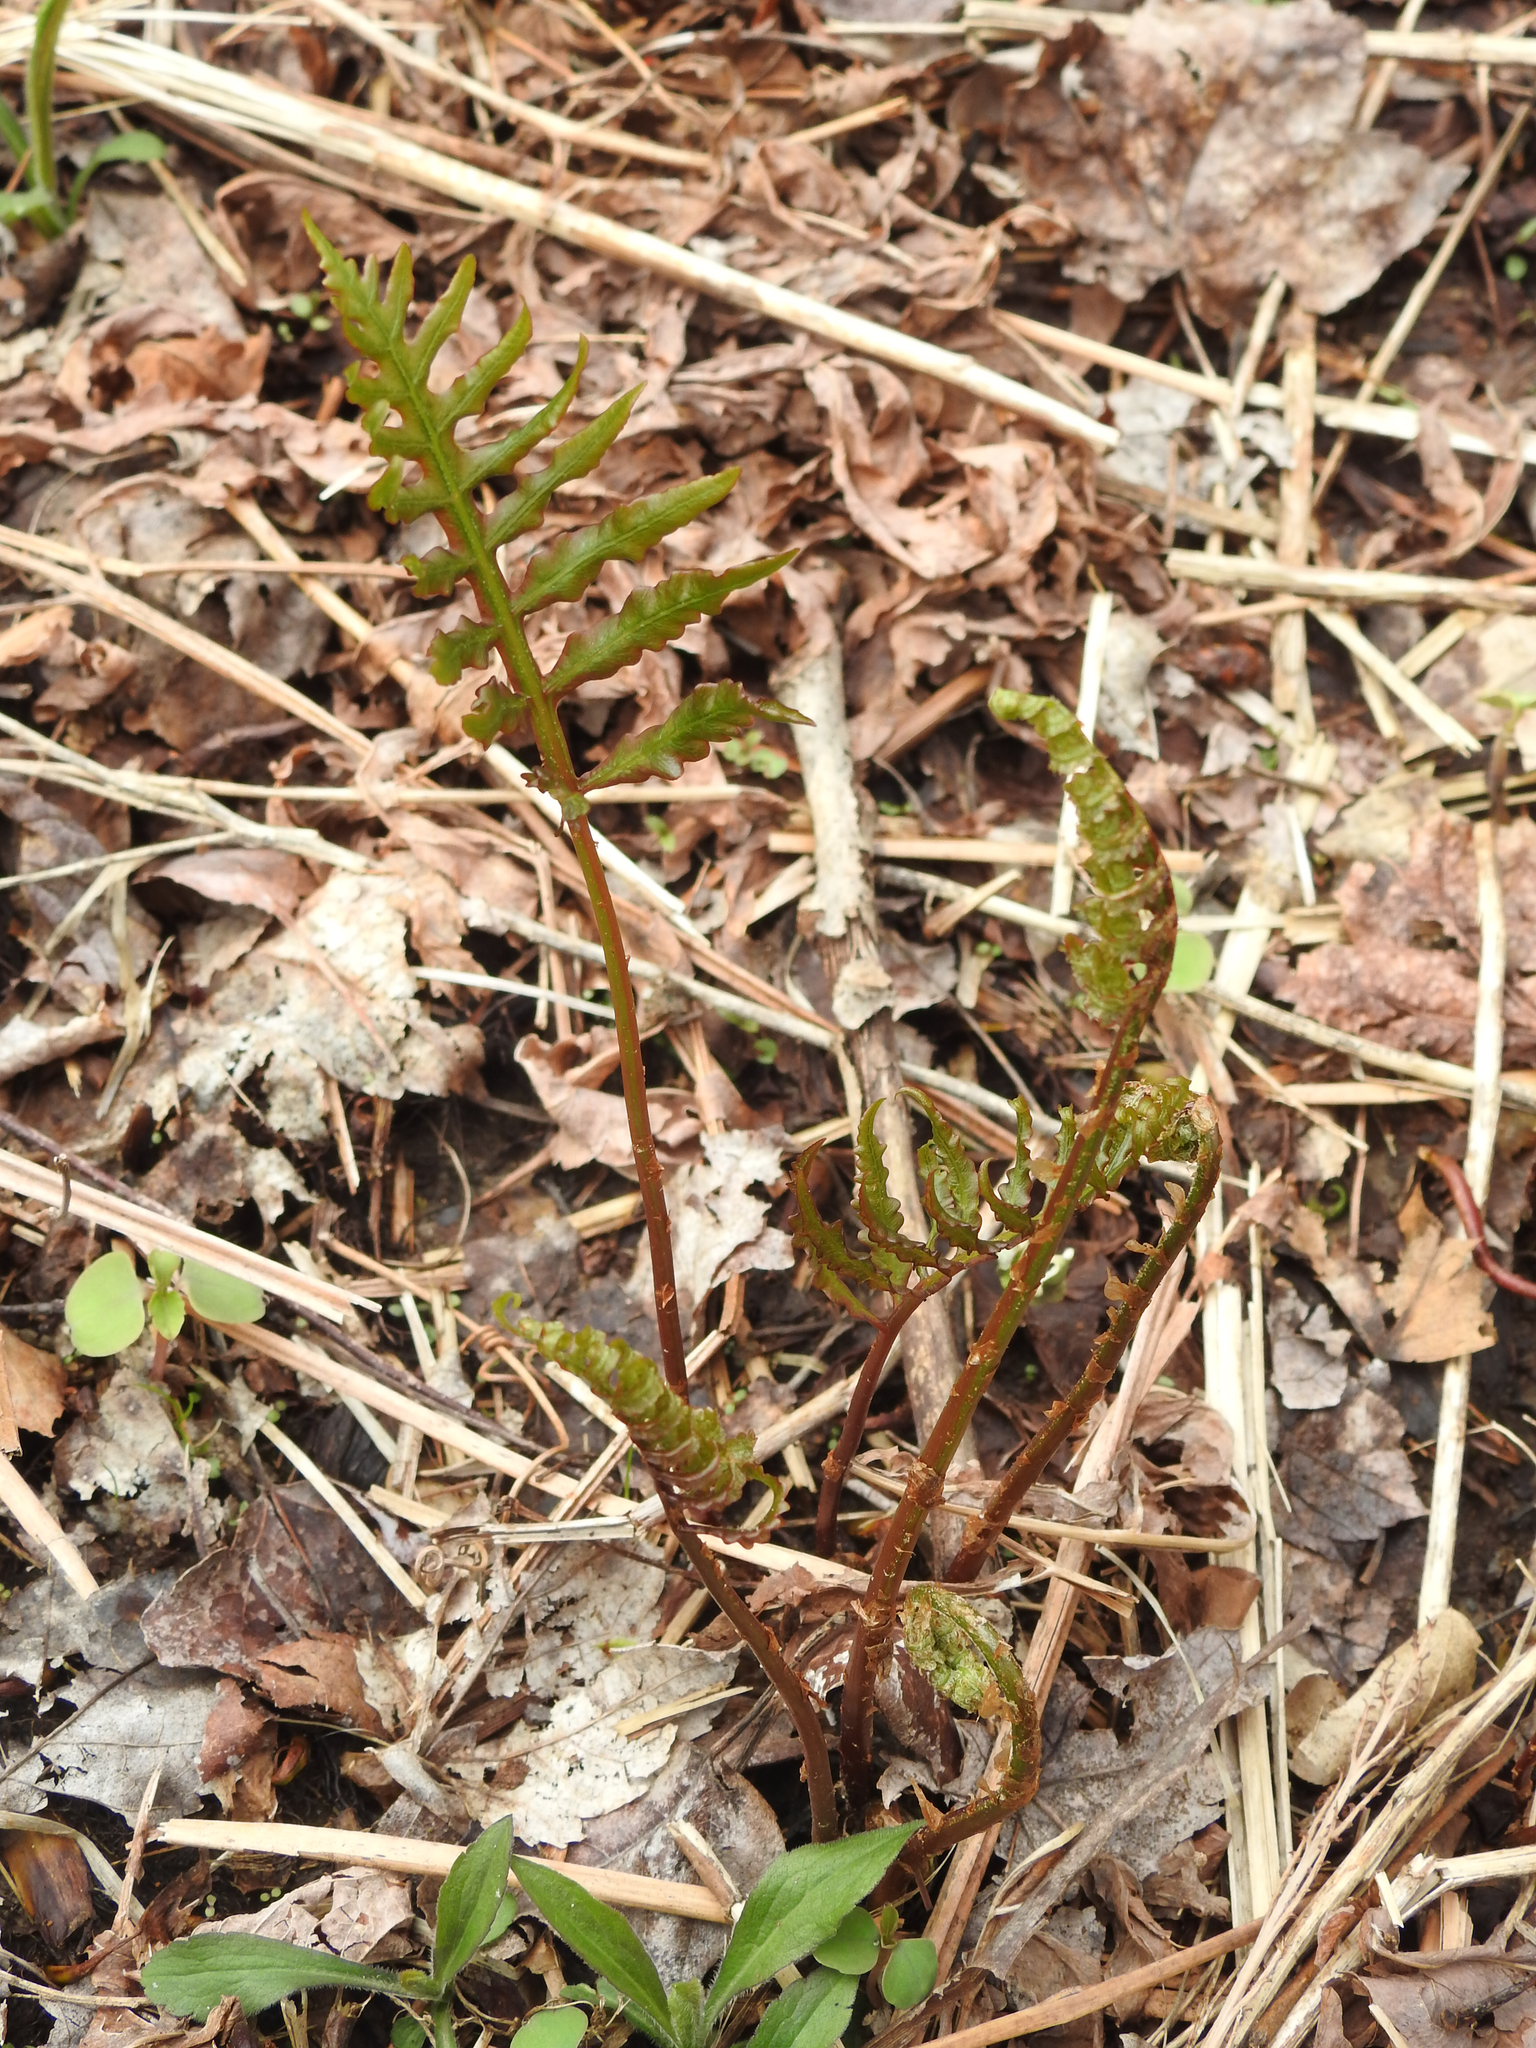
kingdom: Plantae
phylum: Tracheophyta
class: Polypodiopsida
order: Polypodiales
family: Onocleaceae
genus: Onoclea
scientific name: Onoclea sensibilis
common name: Sensitive fern
